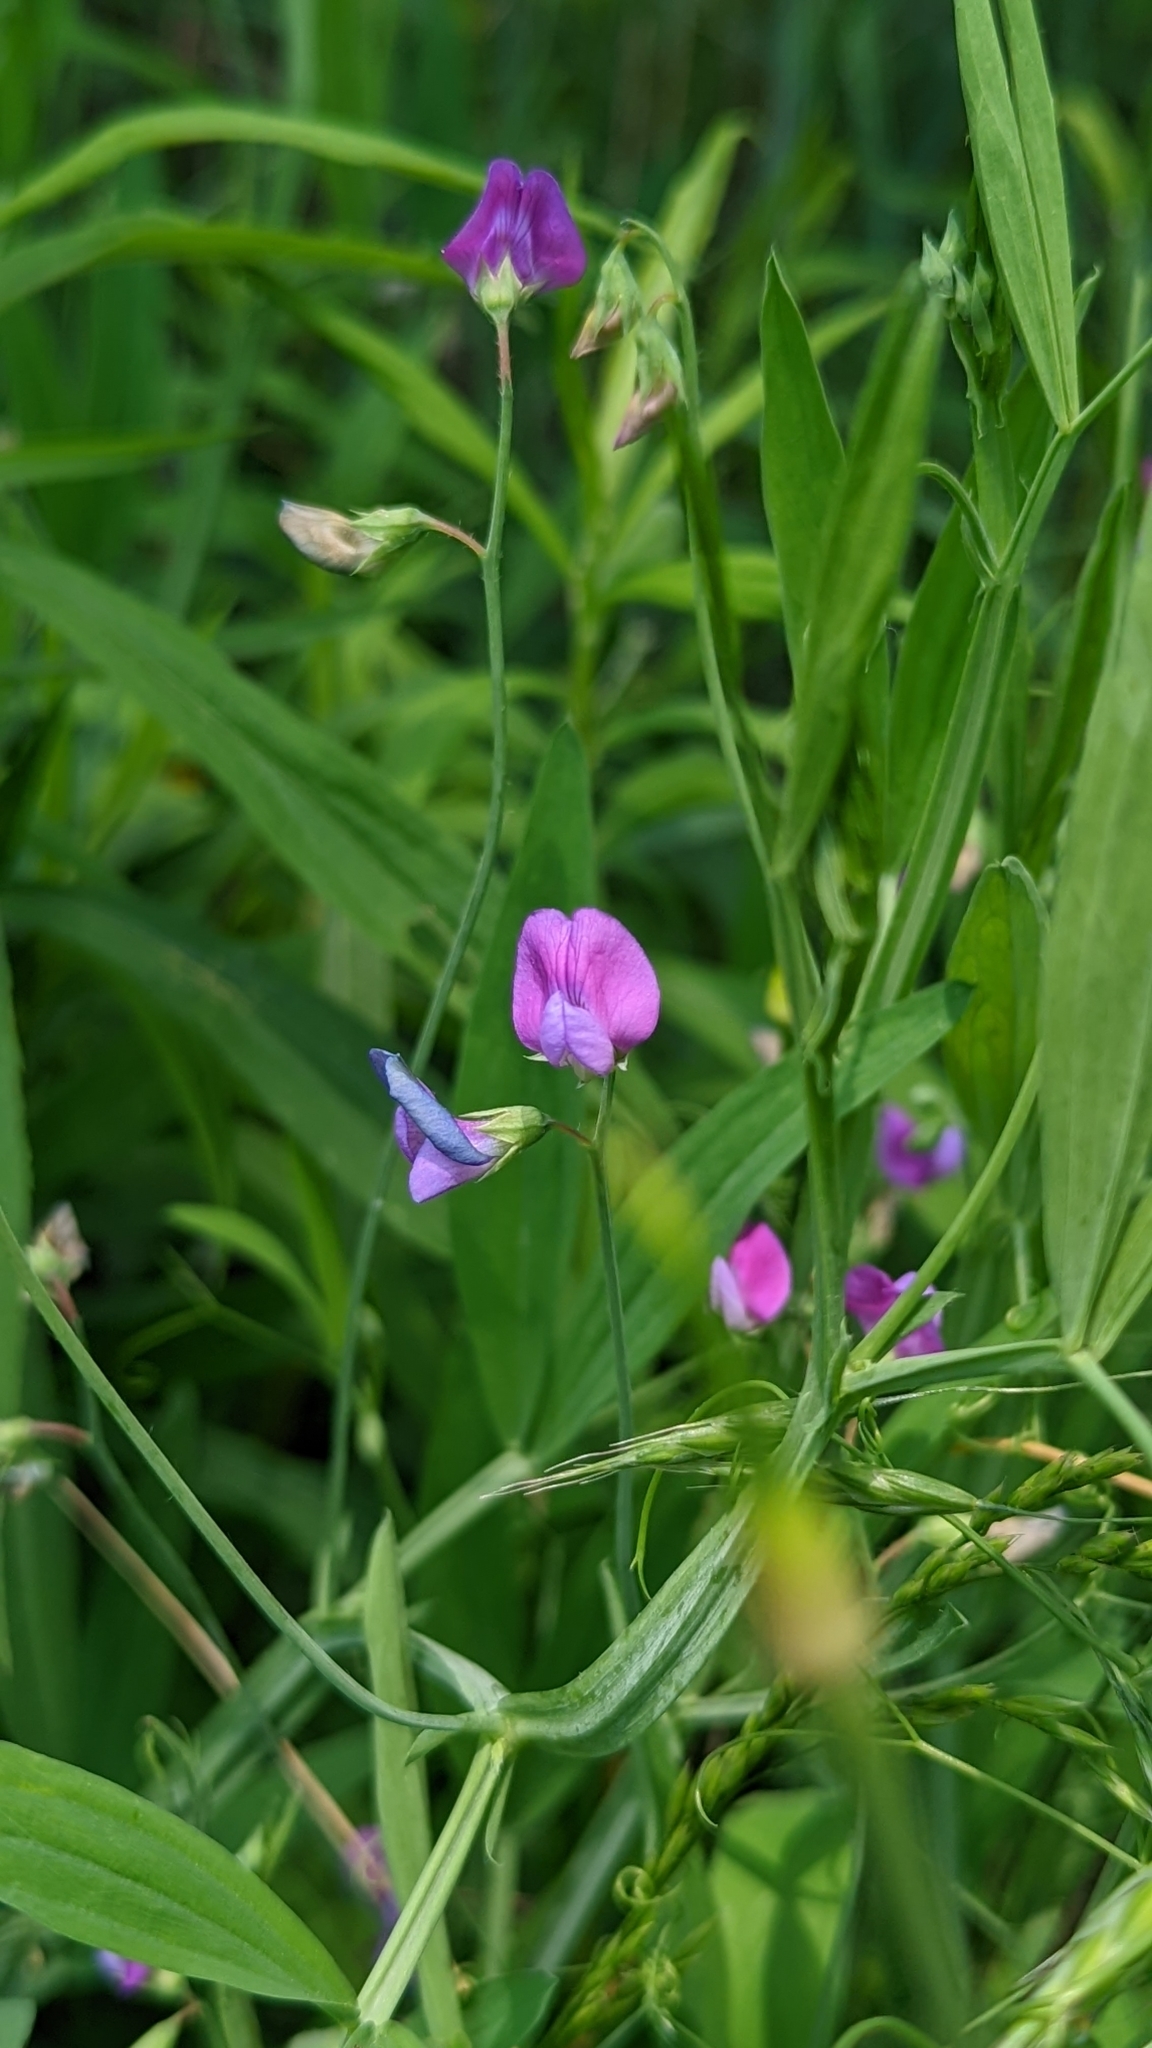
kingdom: Plantae
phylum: Tracheophyta
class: Magnoliopsida
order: Fabales
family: Fabaceae
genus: Lathyrus
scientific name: Lathyrus hirsutus
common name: Hairy vetchling
